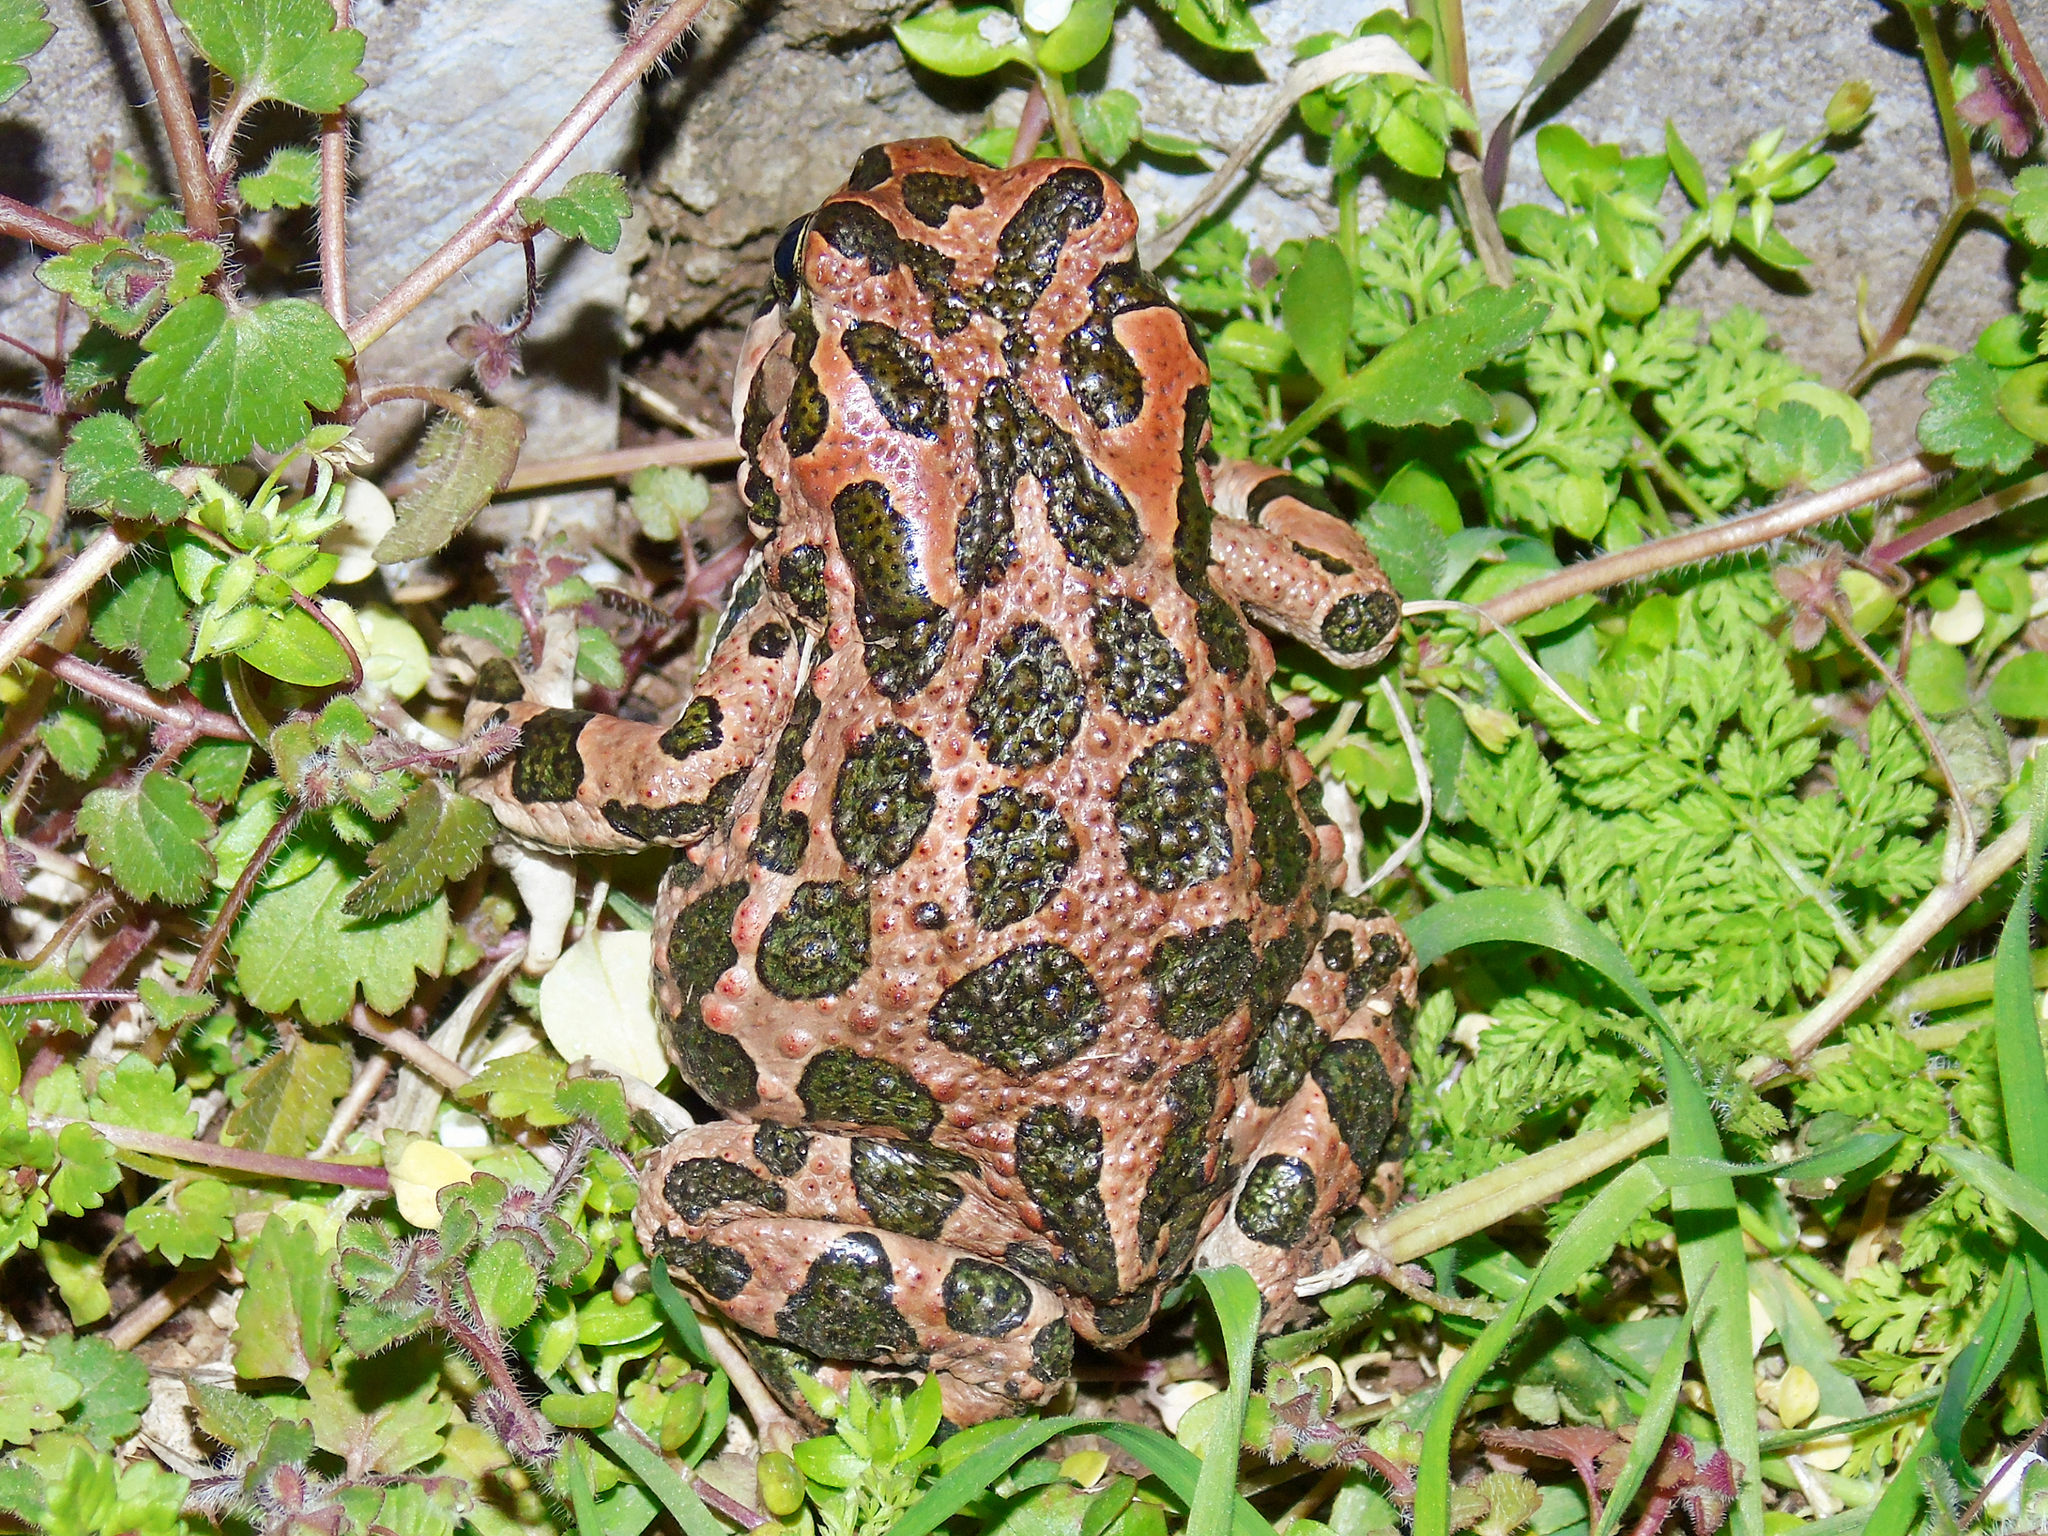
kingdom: Animalia
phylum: Chordata
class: Amphibia
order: Anura
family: Bufonidae
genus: Bufotes
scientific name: Bufotes viridis
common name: European green toad
